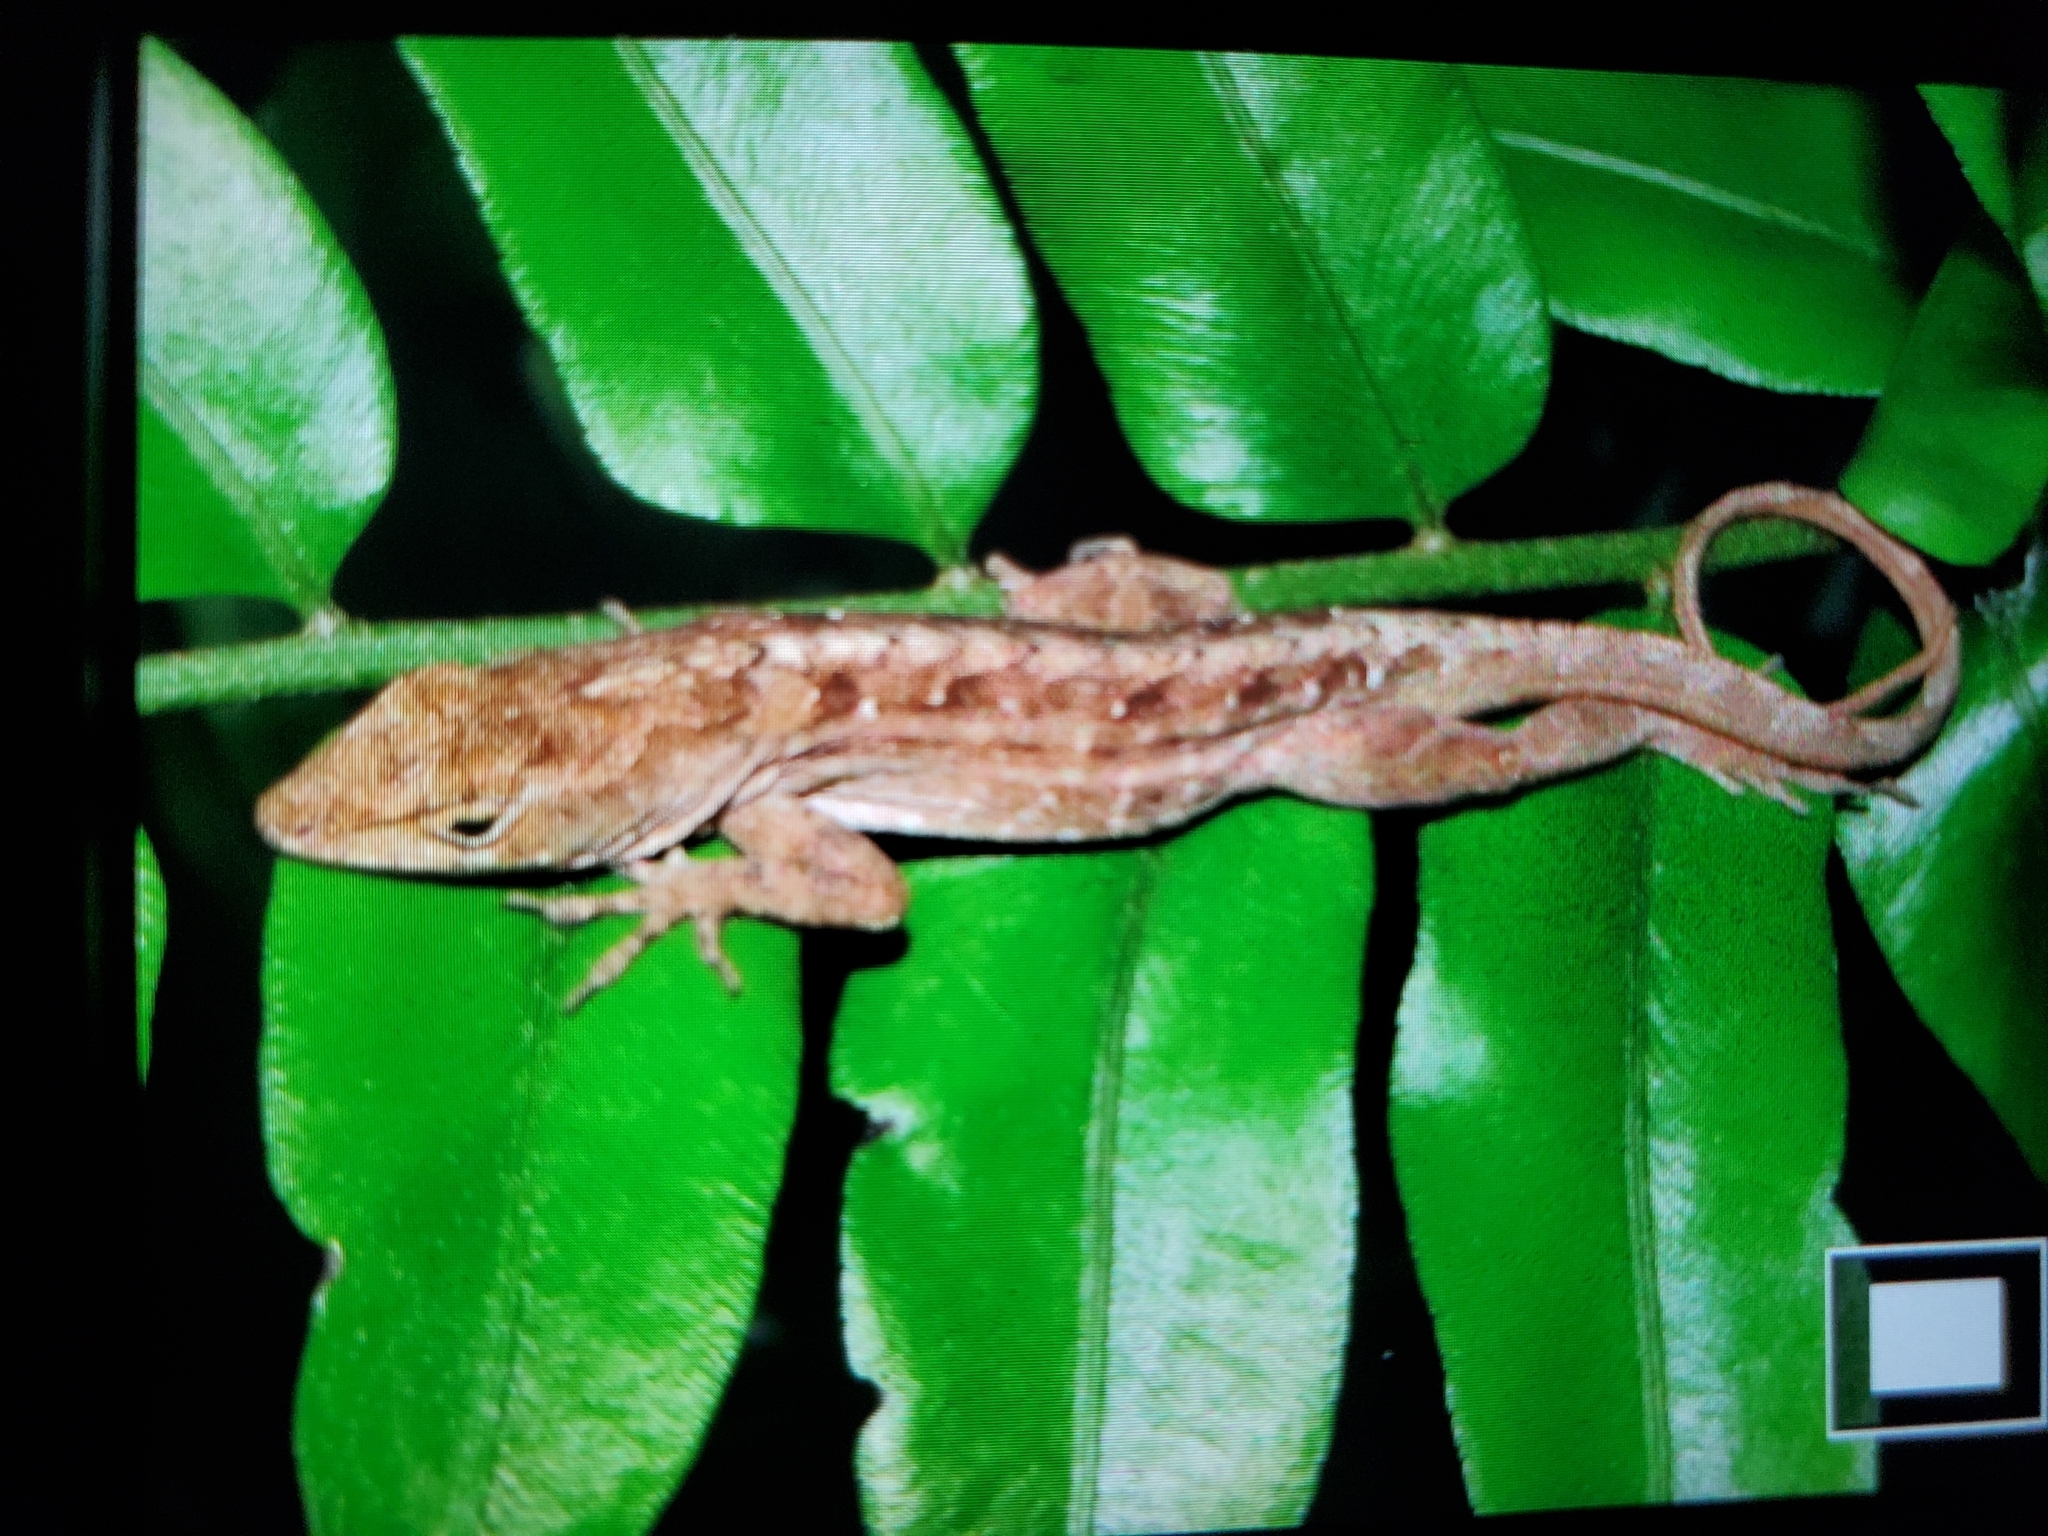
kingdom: Animalia
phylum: Chordata
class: Squamata
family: Dactyloidae
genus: Anolis
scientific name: Anolis sagrei
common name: Brown anole
